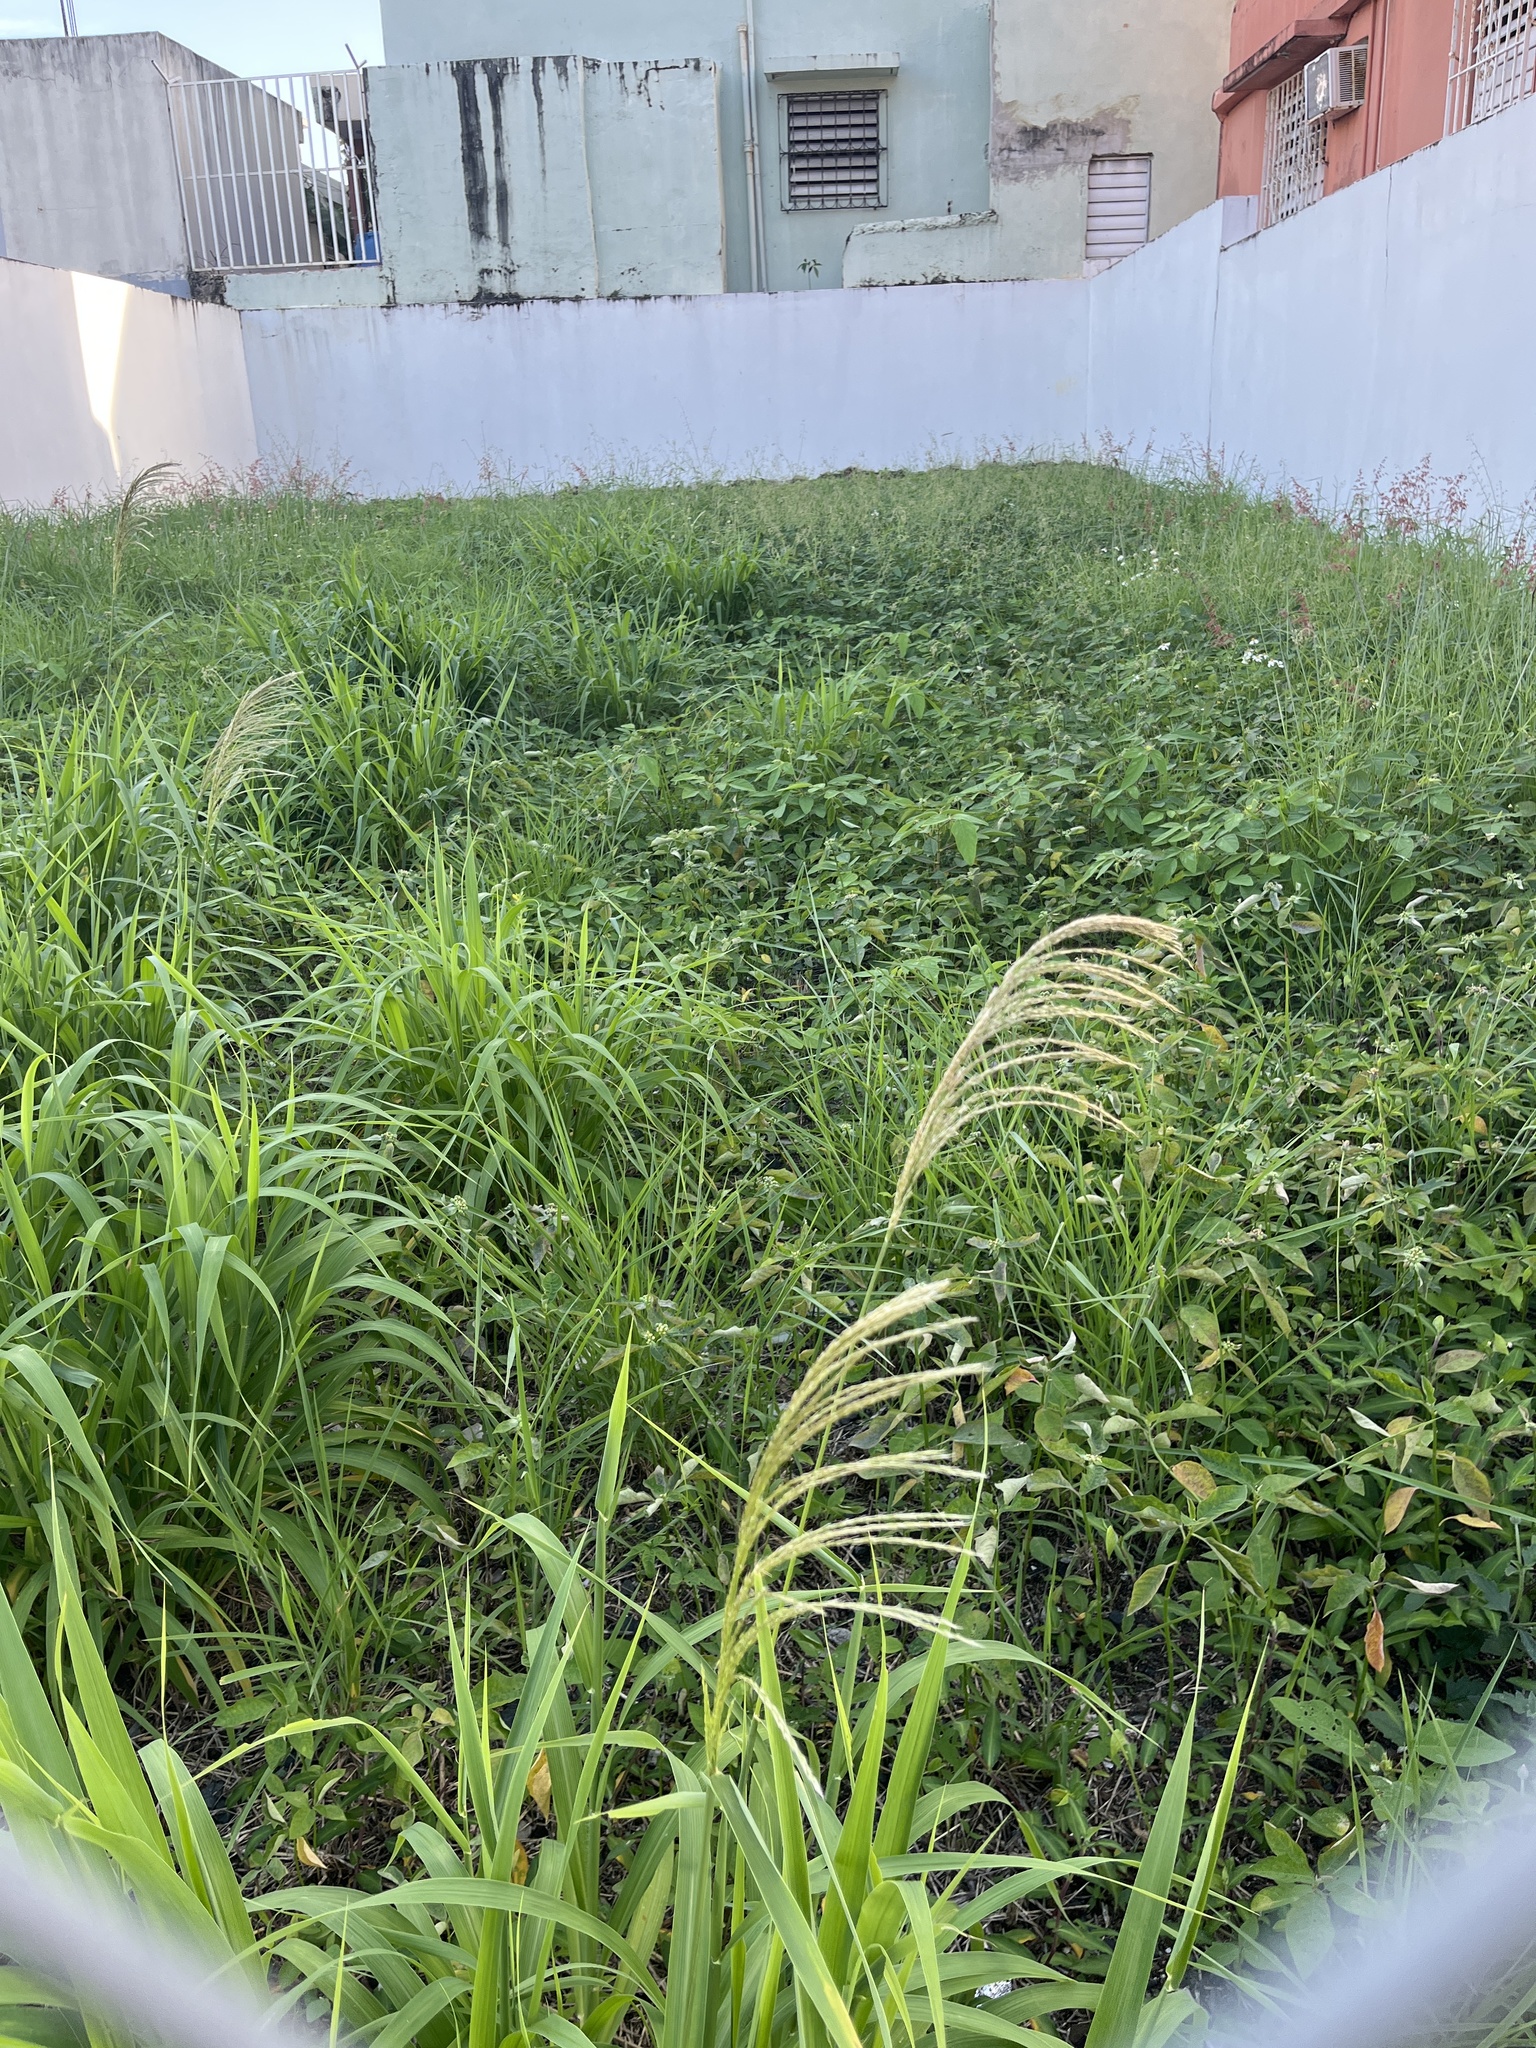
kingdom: Plantae
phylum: Tracheophyta
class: Liliopsida
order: Poales
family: Poaceae
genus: Digitaria
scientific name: Digitaria insularis
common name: Sourgrass
